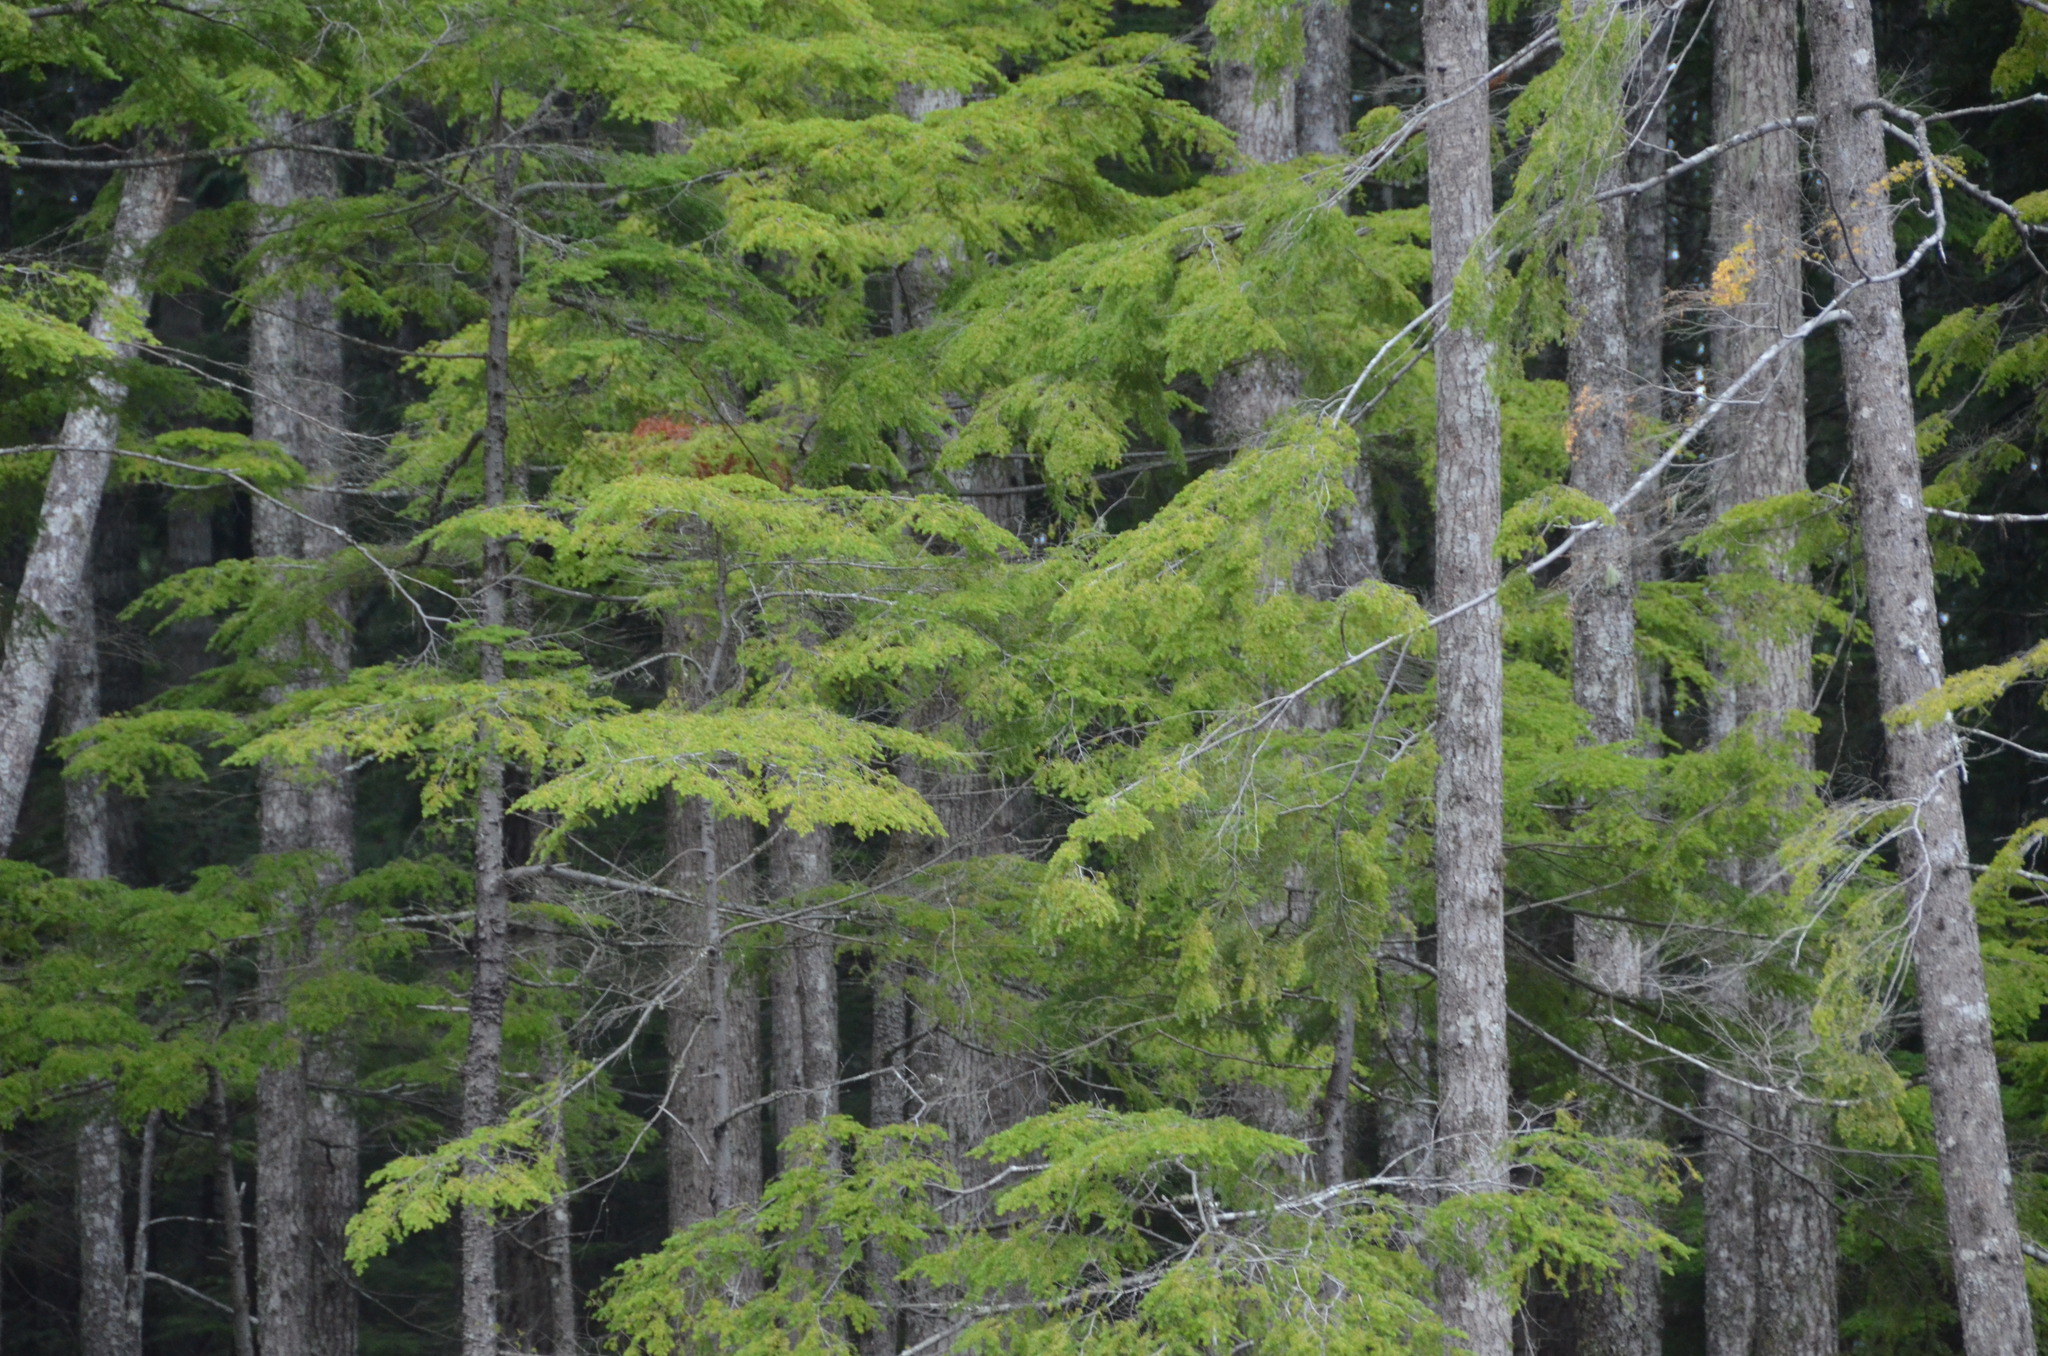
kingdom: Plantae
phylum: Tracheophyta
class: Pinopsida
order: Pinales
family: Pinaceae
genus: Tsuga
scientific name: Tsuga heterophylla
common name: Western hemlock
